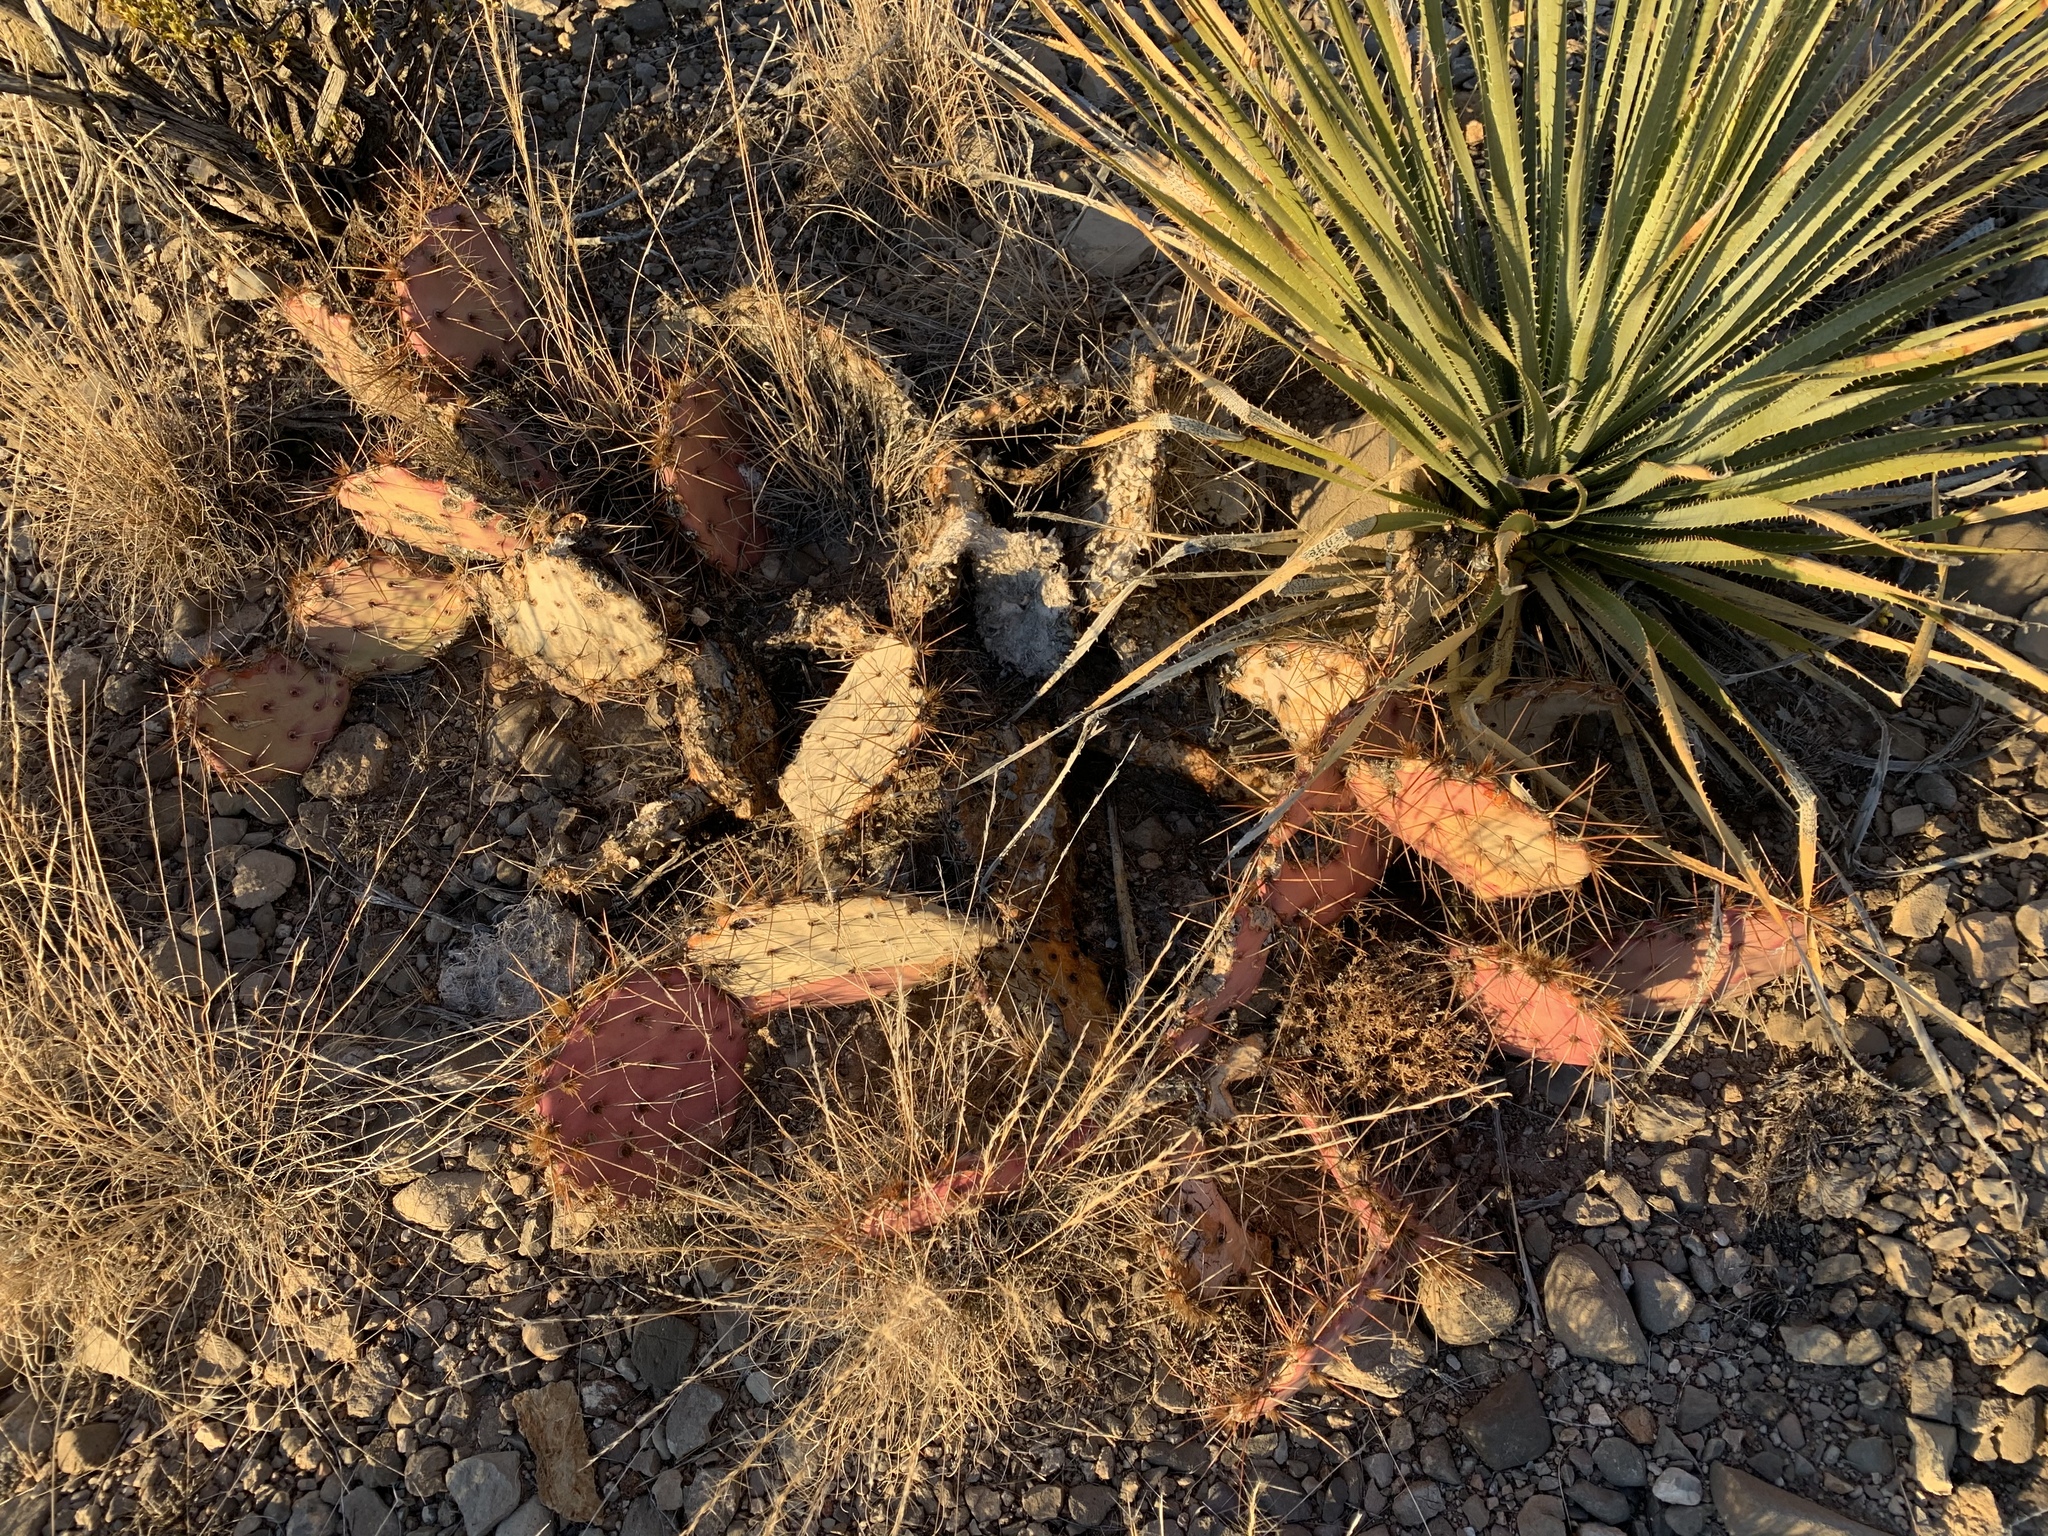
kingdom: Plantae
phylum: Tracheophyta
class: Magnoliopsida
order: Caryophyllales
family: Cactaceae
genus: Opuntia
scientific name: Opuntia macrocentra
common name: Purple prickly-pear
